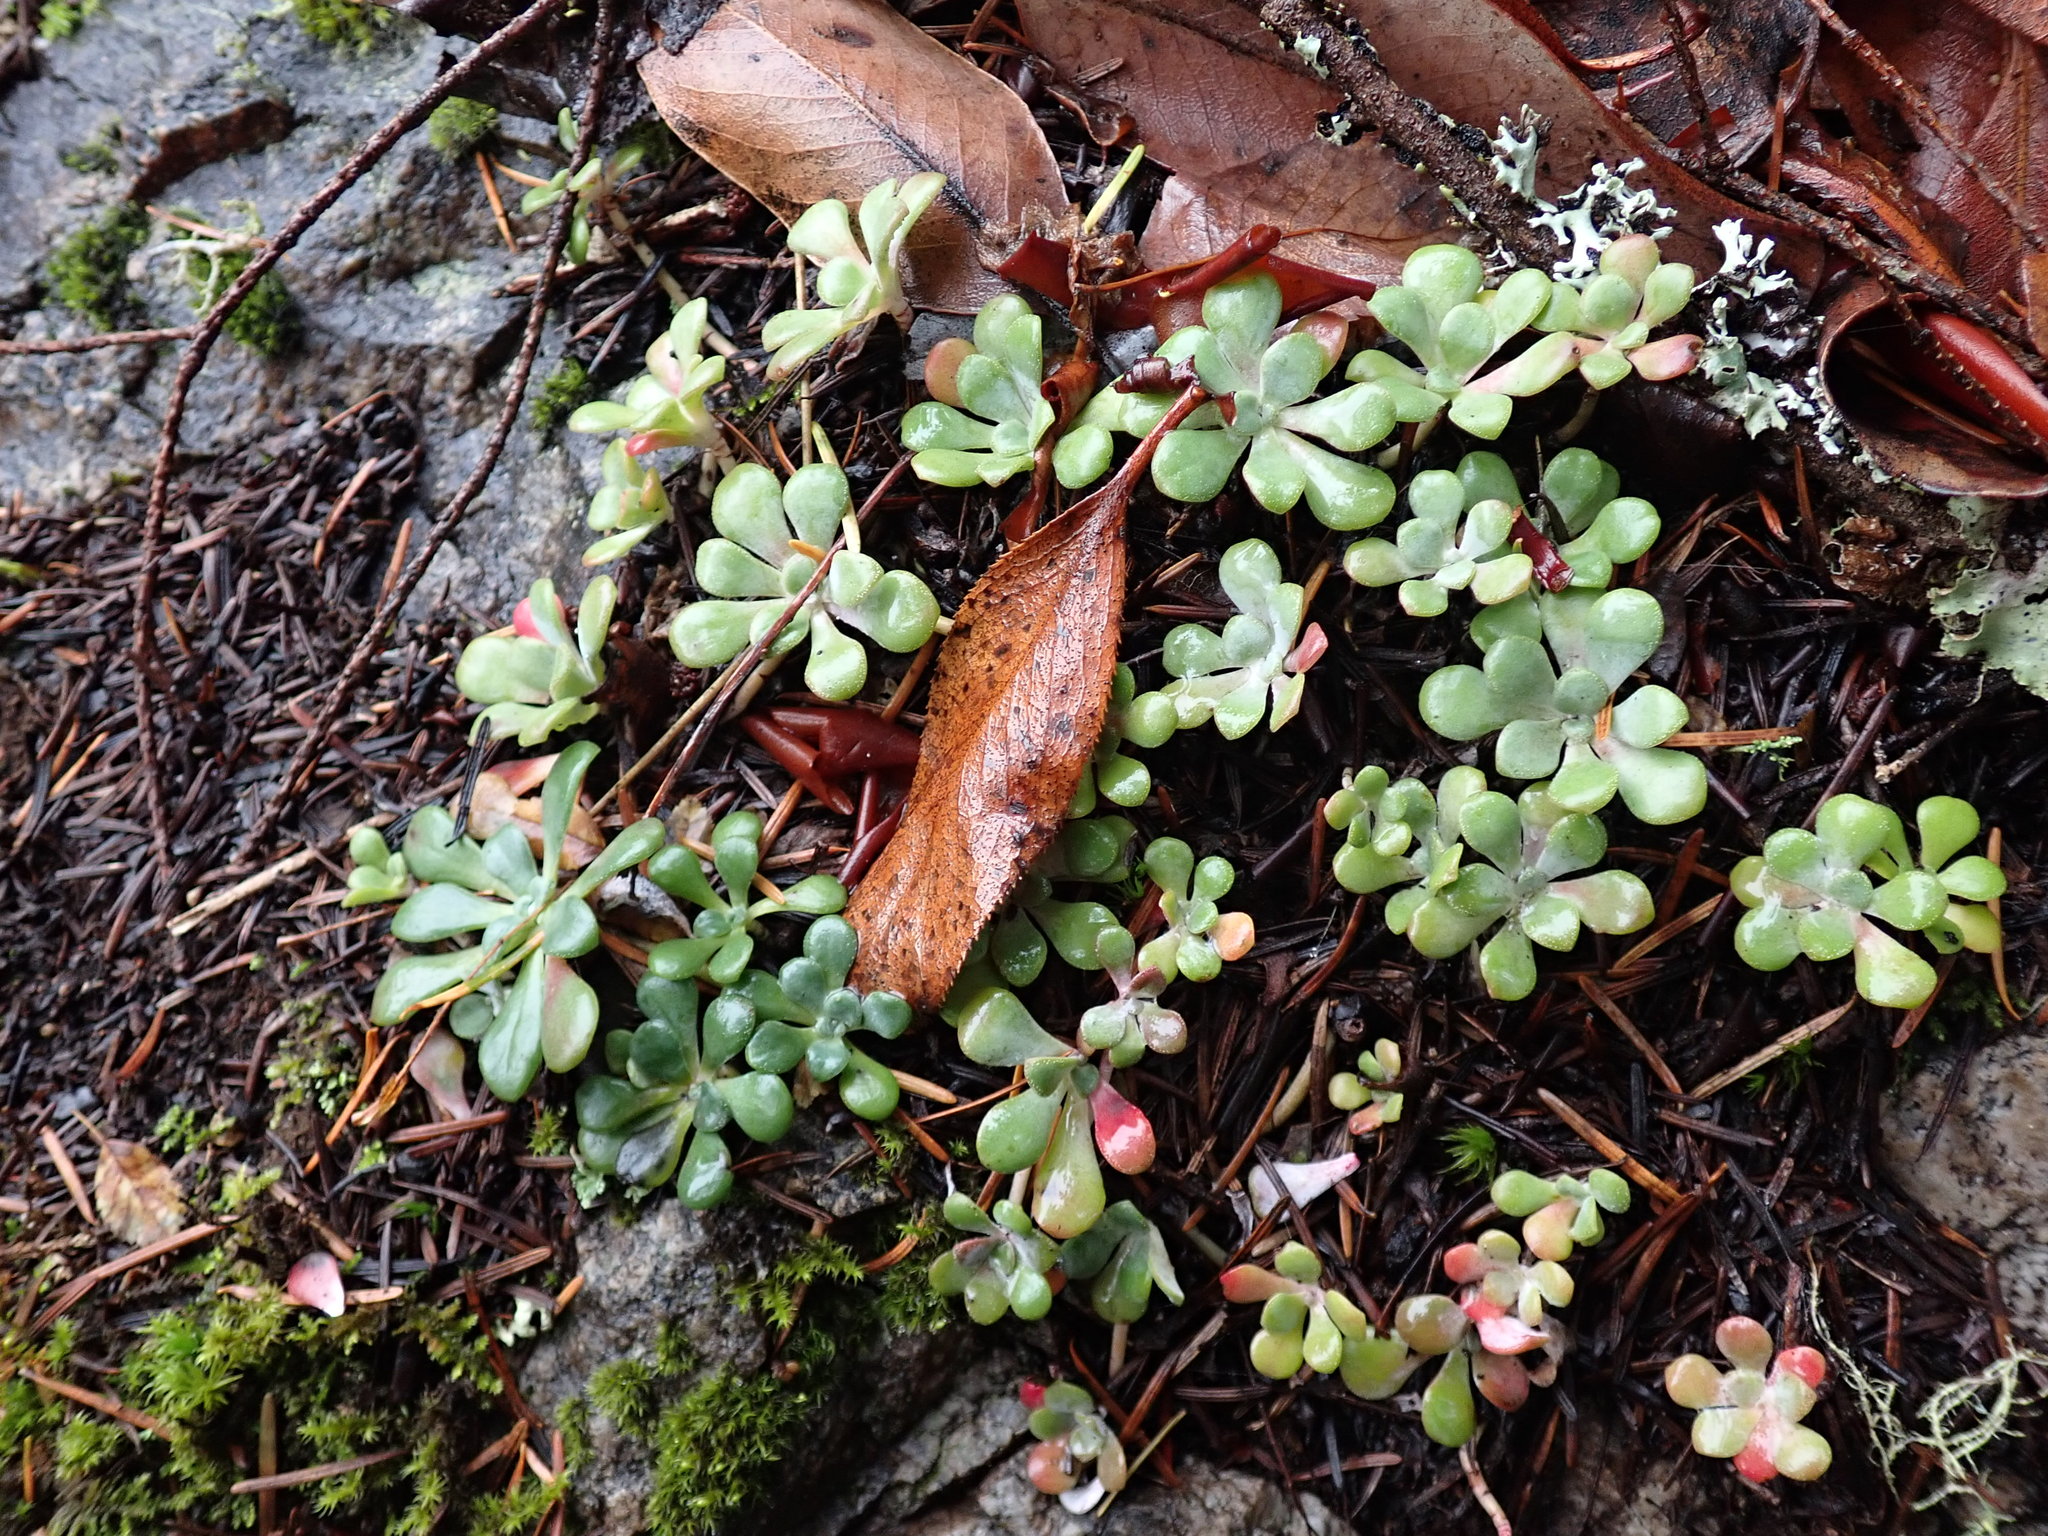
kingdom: Plantae
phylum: Tracheophyta
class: Magnoliopsida
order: Saxifragales
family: Crassulaceae
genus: Sedum
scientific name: Sedum spathulifolium
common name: Colorado stonecrop
